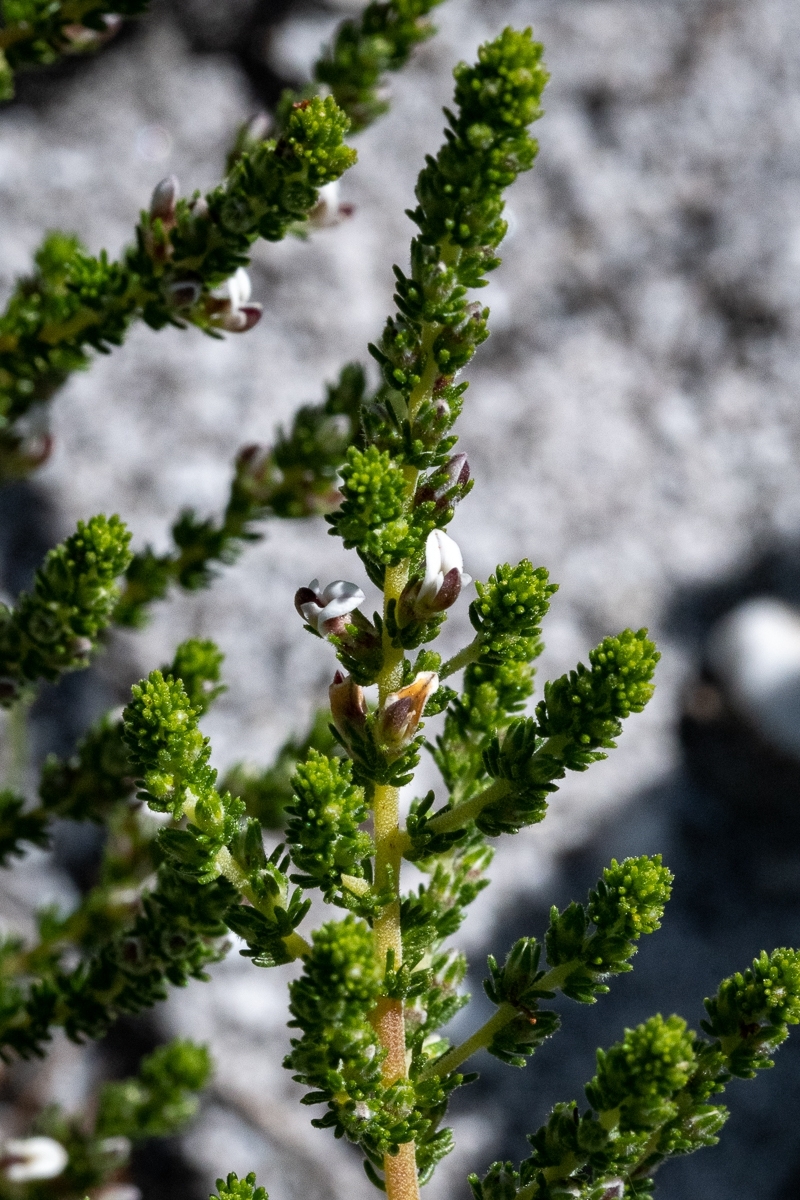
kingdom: Plantae
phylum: Tracheophyta
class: Magnoliopsida
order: Fabales
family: Fabaceae
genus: Aspalathus
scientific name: Aspalathus hispida
